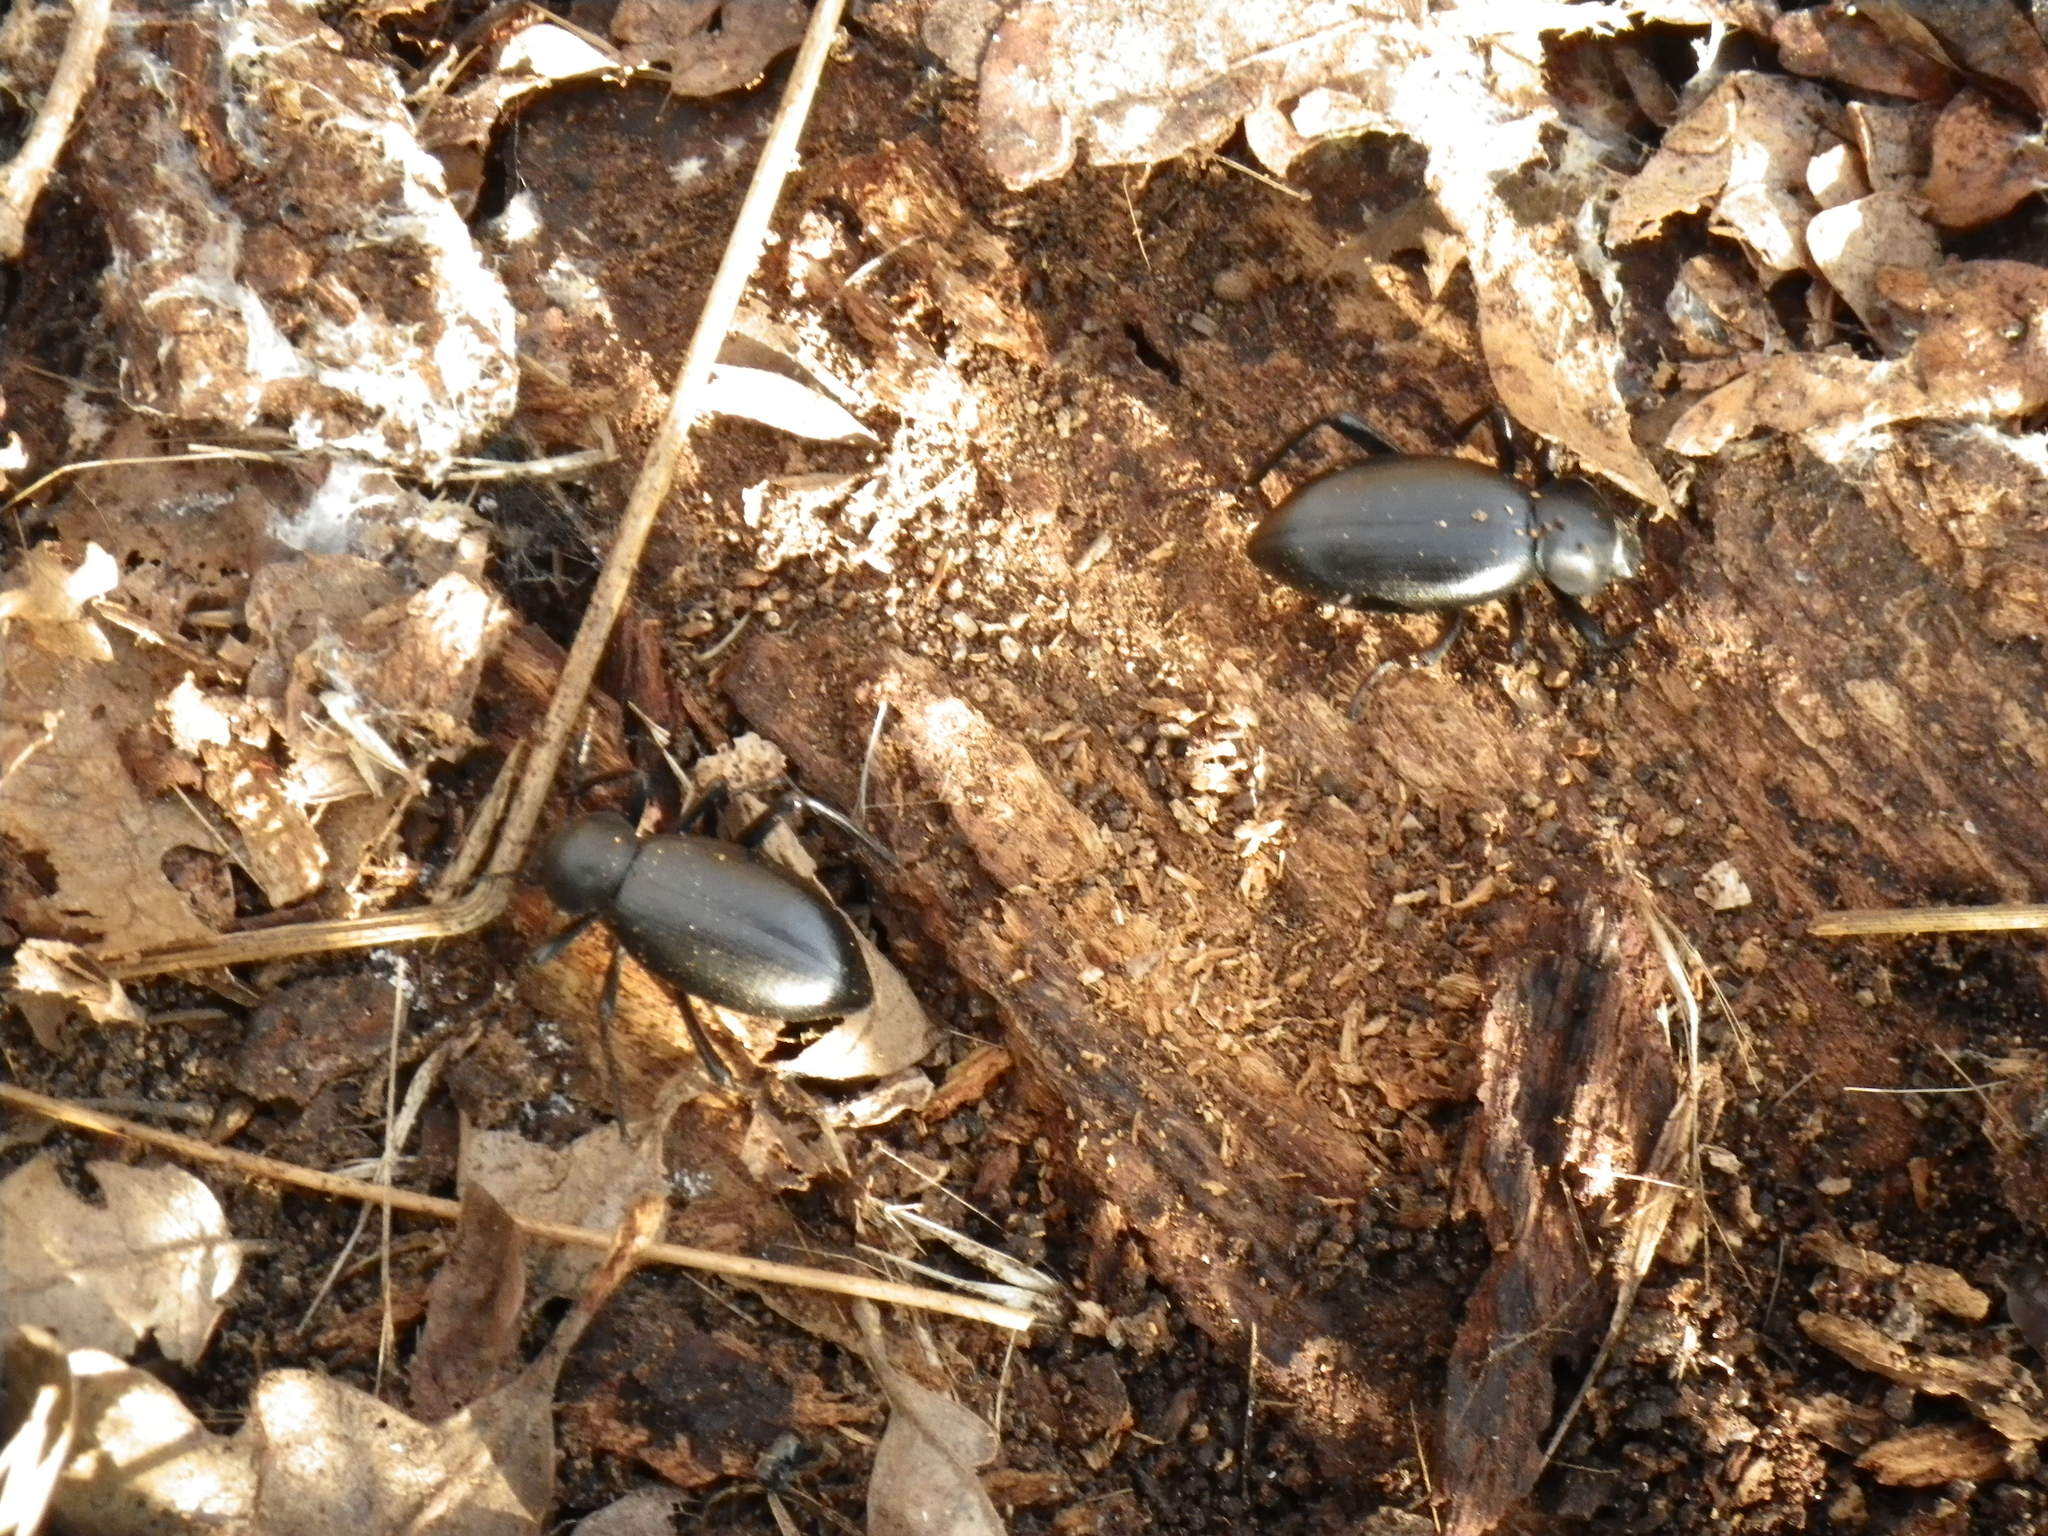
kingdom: Animalia
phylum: Arthropoda
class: Insecta
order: Coleoptera
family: Tenebrionidae
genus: Eleodes
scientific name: Eleodes dentipes
